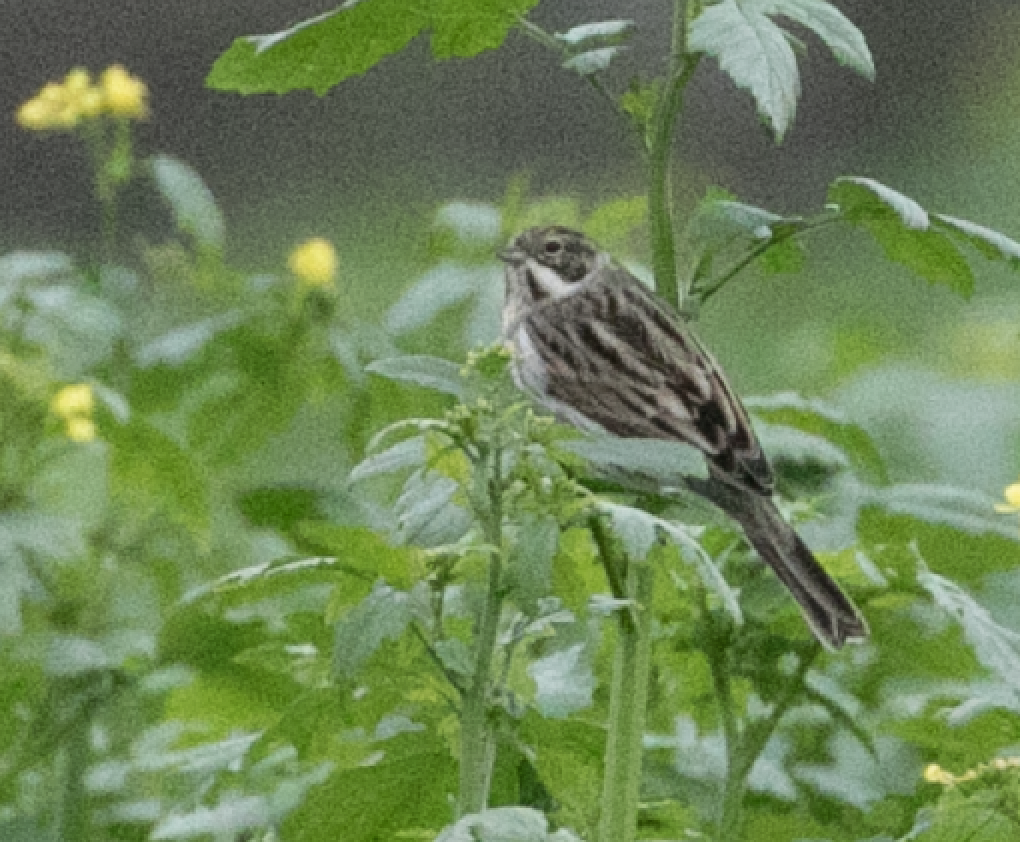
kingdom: Animalia
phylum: Chordata
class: Aves
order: Passeriformes
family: Emberizidae
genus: Emberiza
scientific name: Emberiza schoeniclus
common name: Reed bunting
